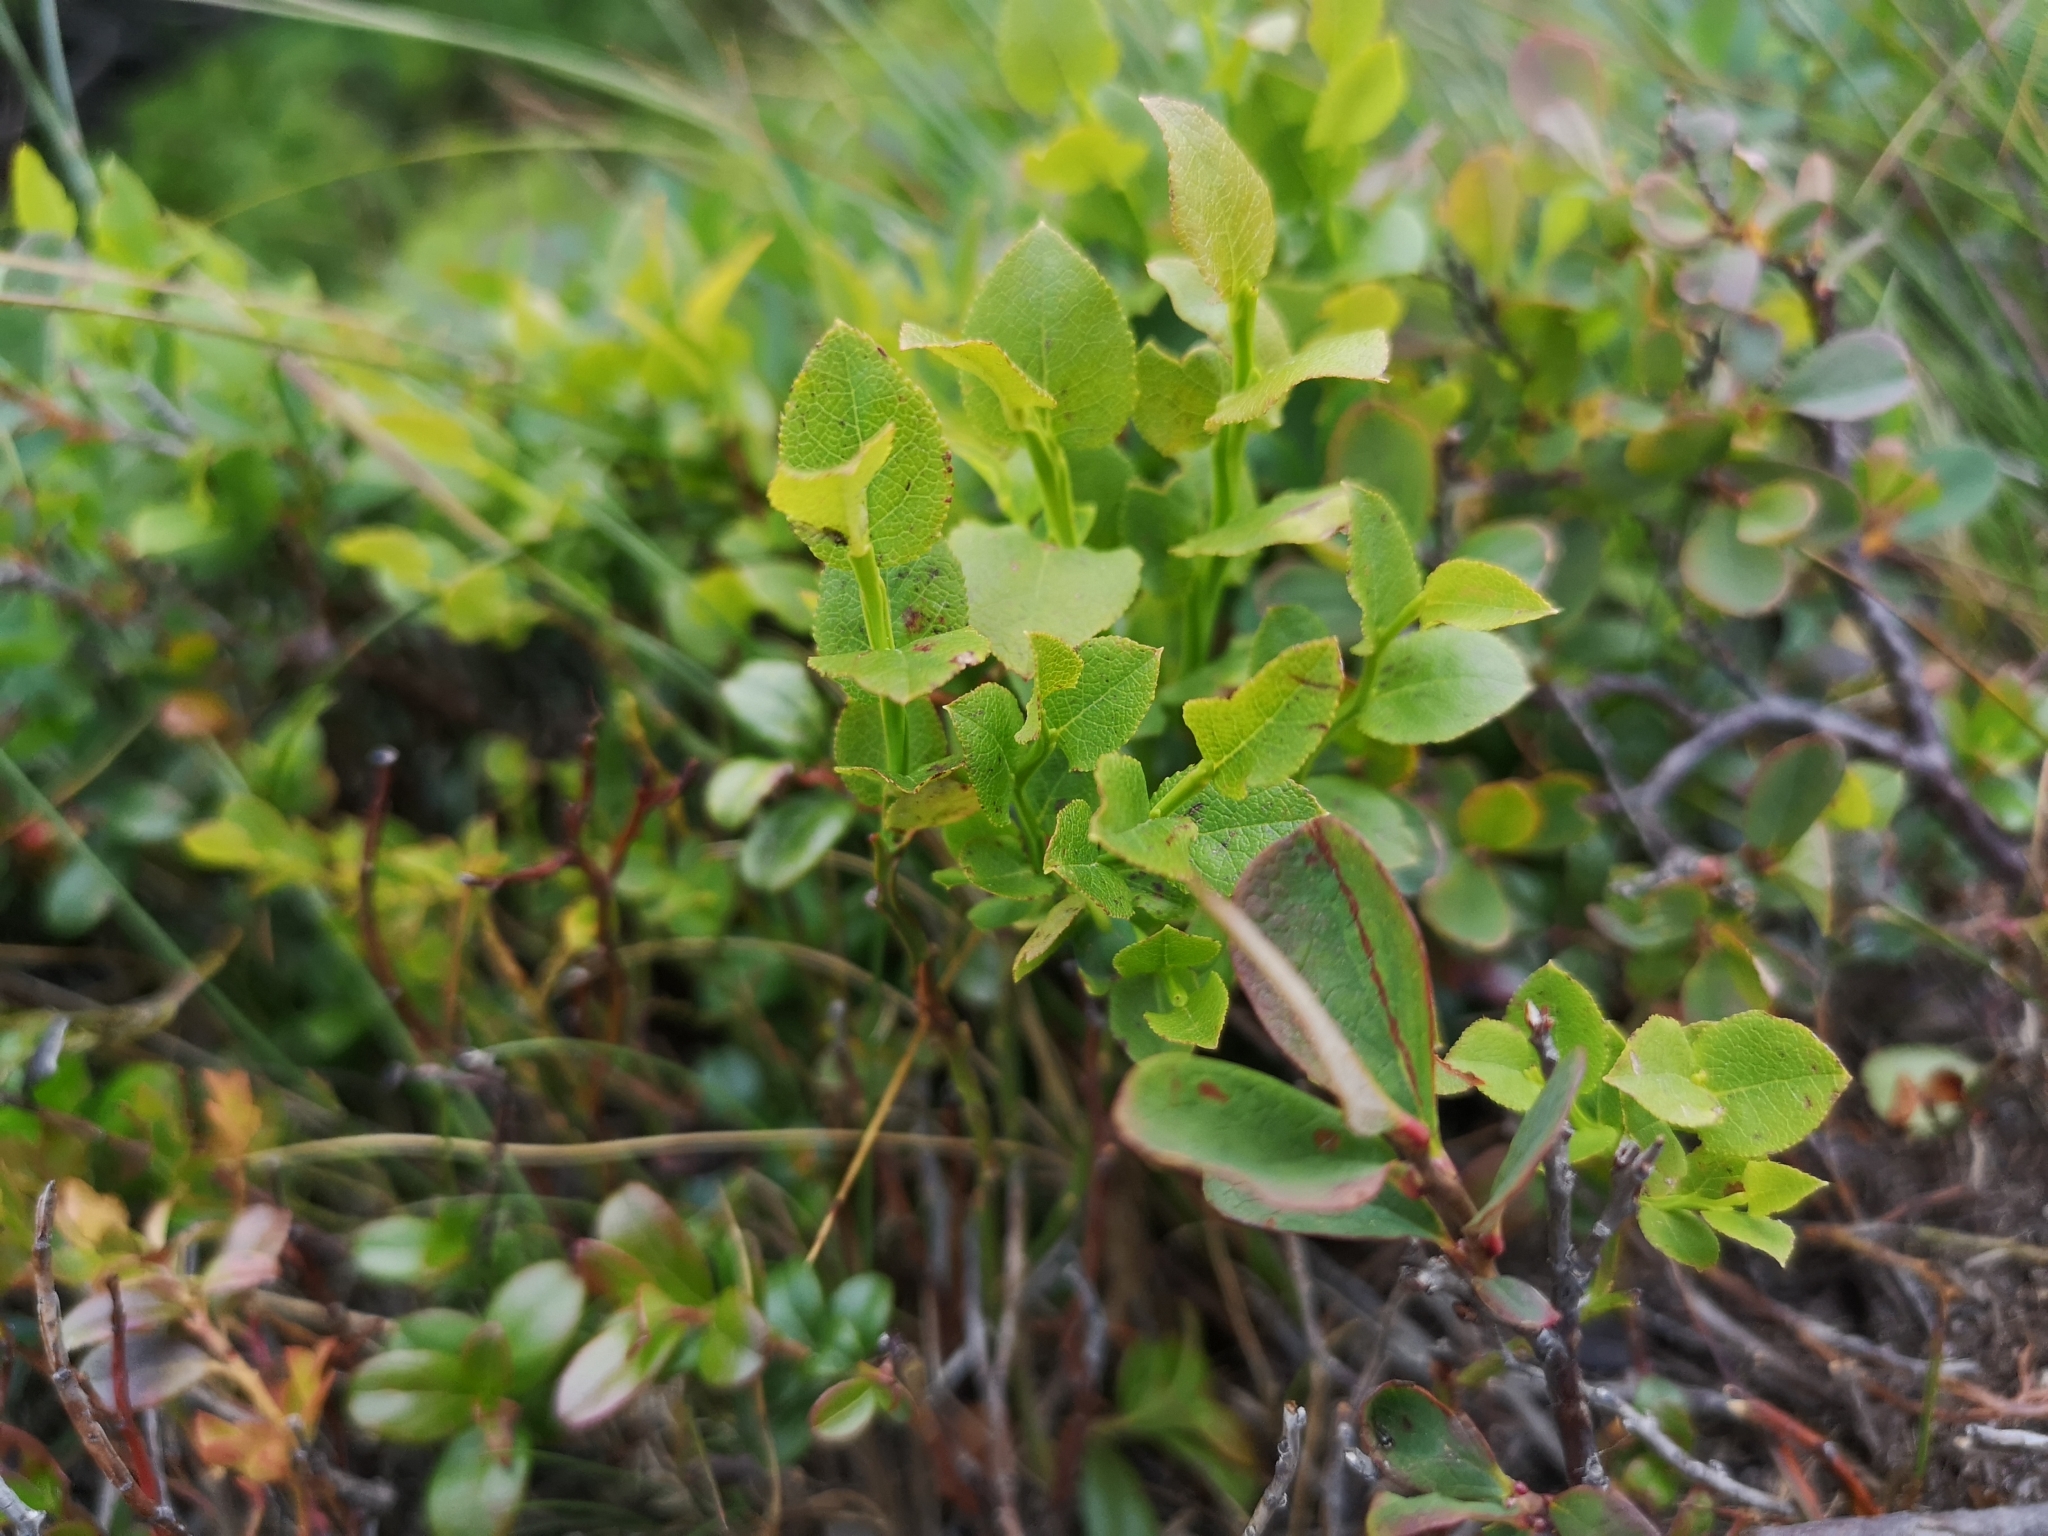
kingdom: Plantae
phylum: Tracheophyta
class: Magnoliopsida
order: Ericales
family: Ericaceae
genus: Vaccinium
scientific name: Vaccinium myrtillus
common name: Bilberry
